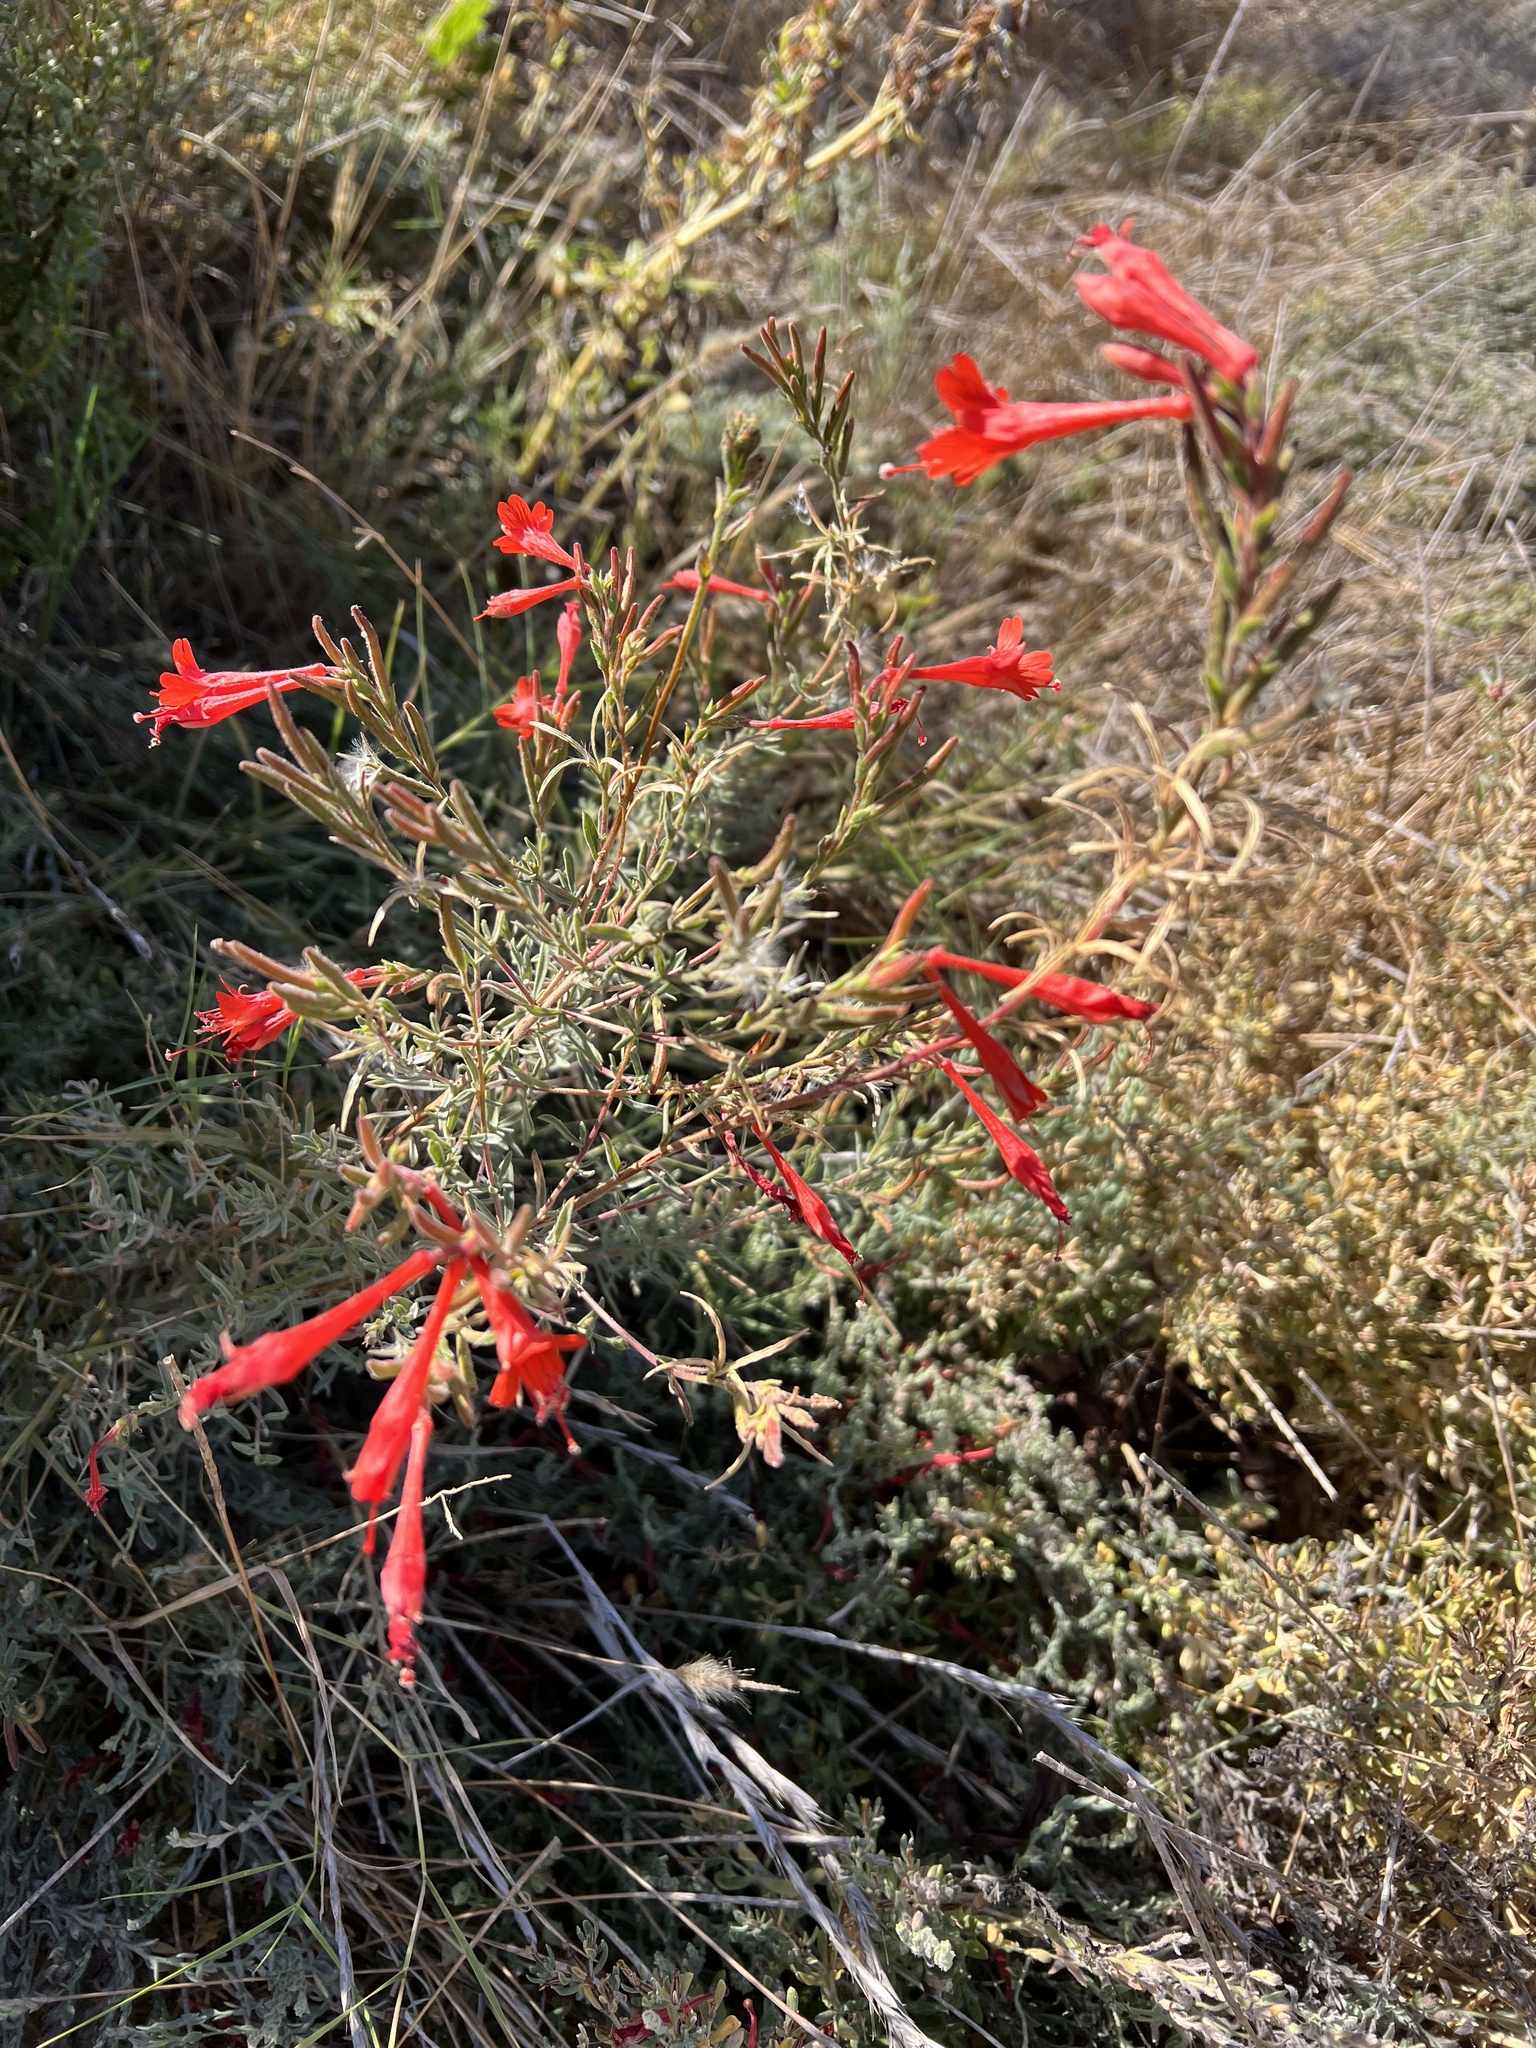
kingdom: Plantae
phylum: Tracheophyta
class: Magnoliopsida
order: Myrtales
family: Onagraceae
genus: Epilobium
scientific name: Epilobium canum
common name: California-fuchsia
